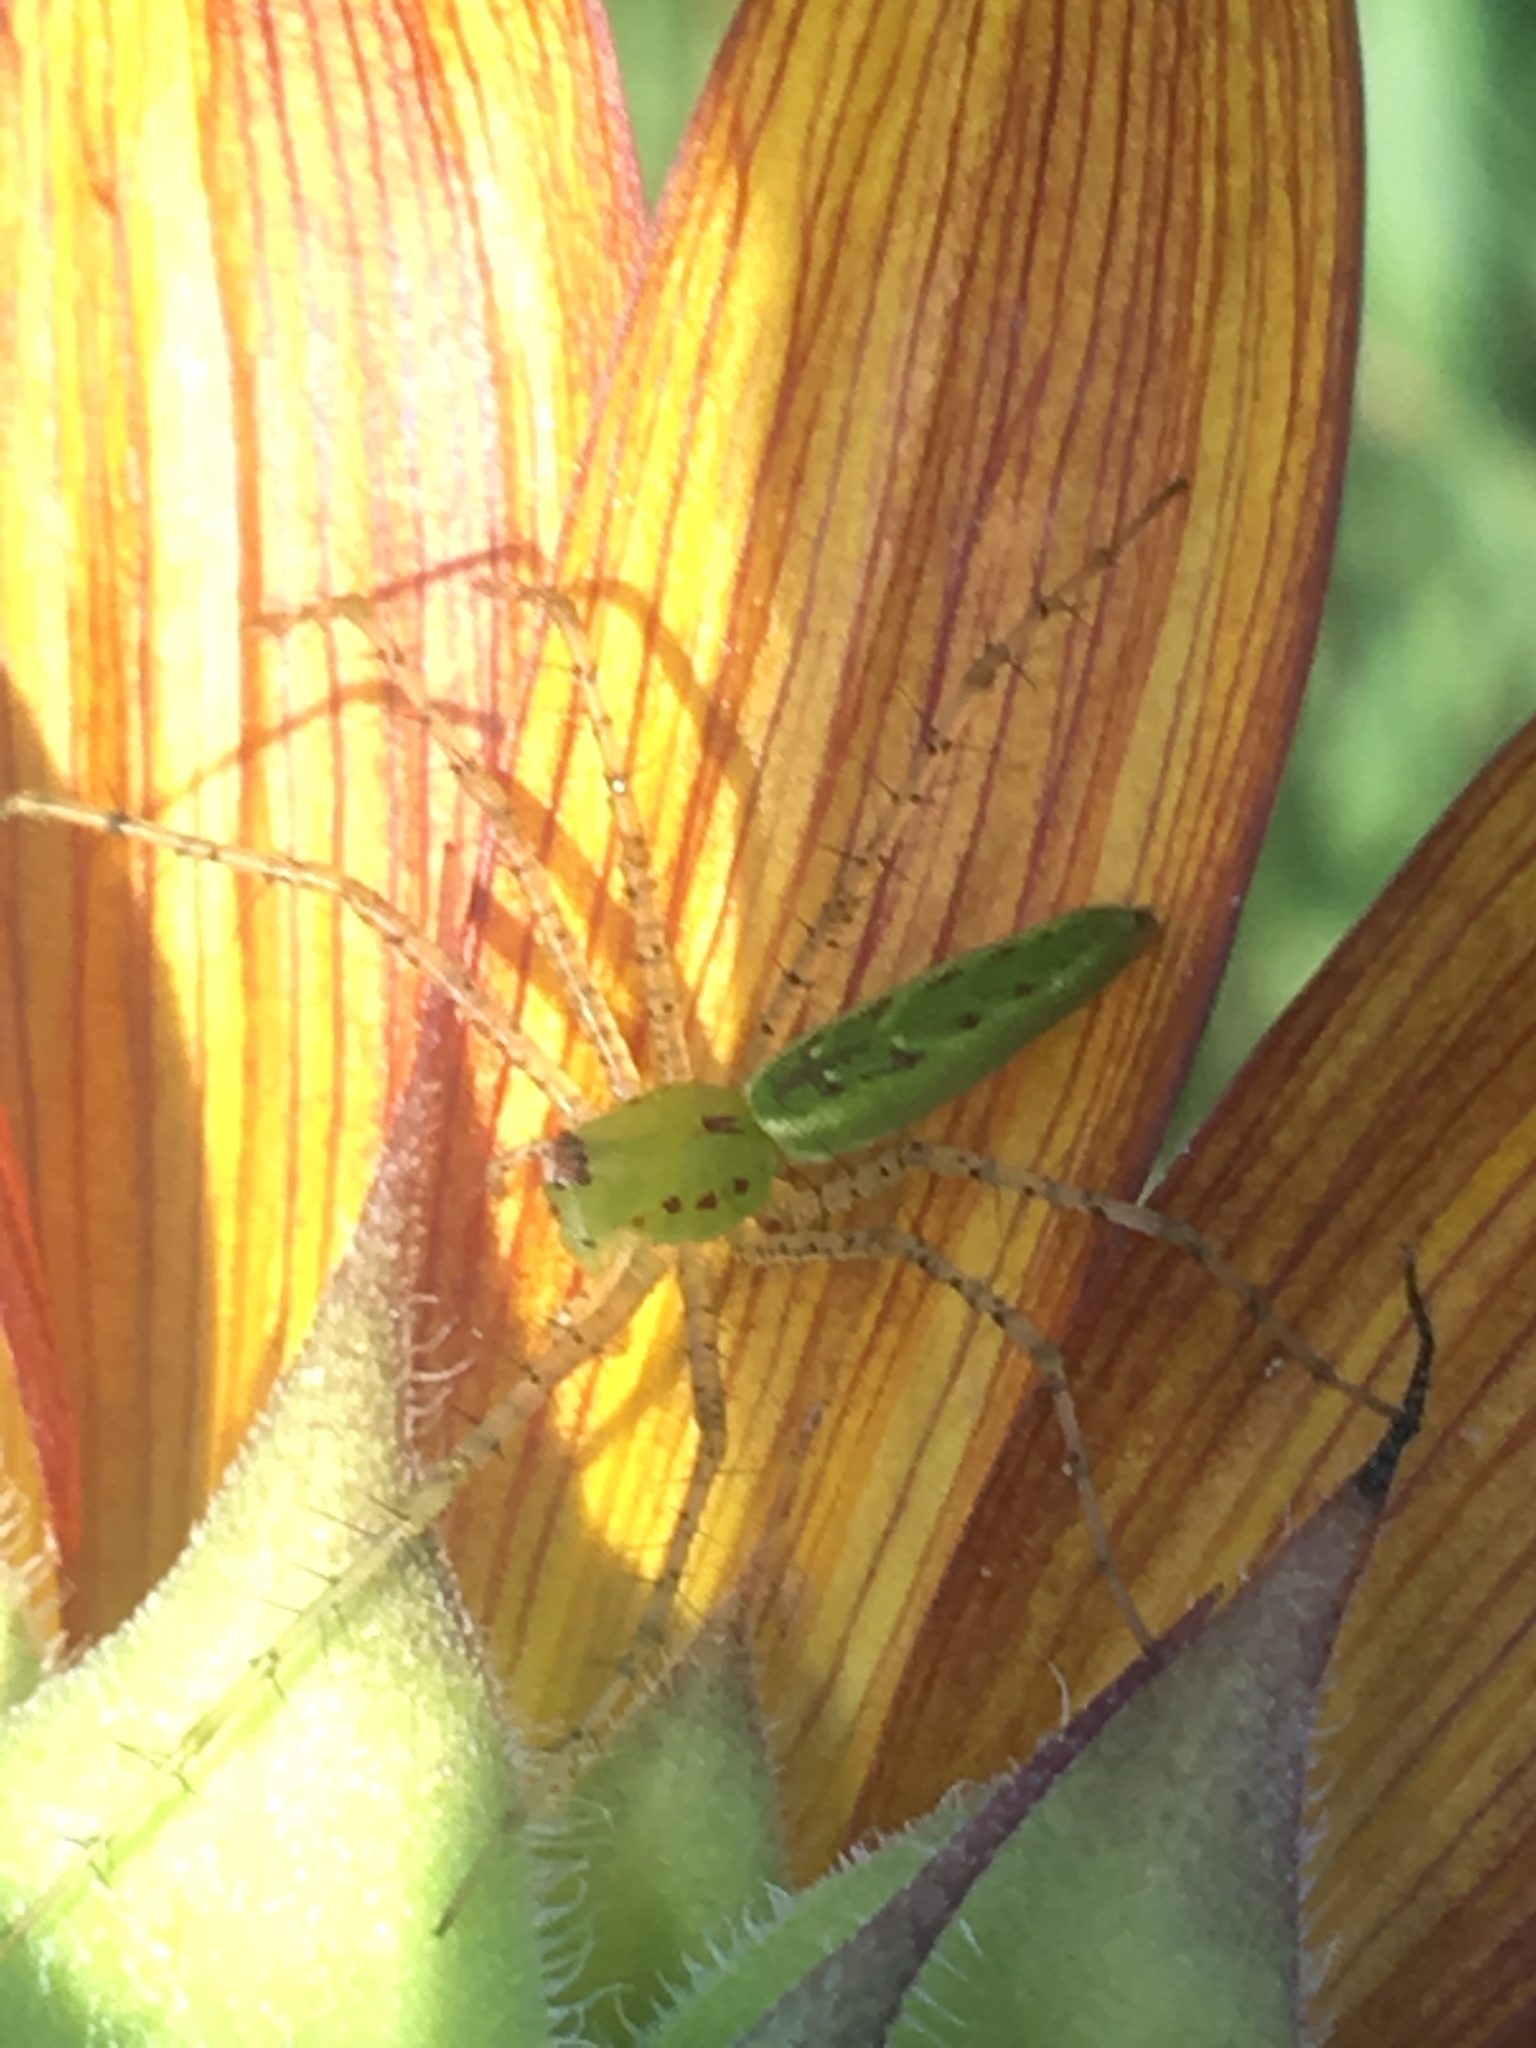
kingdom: Animalia
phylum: Arthropoda
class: Arachnida
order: Araneae
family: Oxyopidae
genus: Peucetia
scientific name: Peucetia viridans
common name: Lynx spiders
